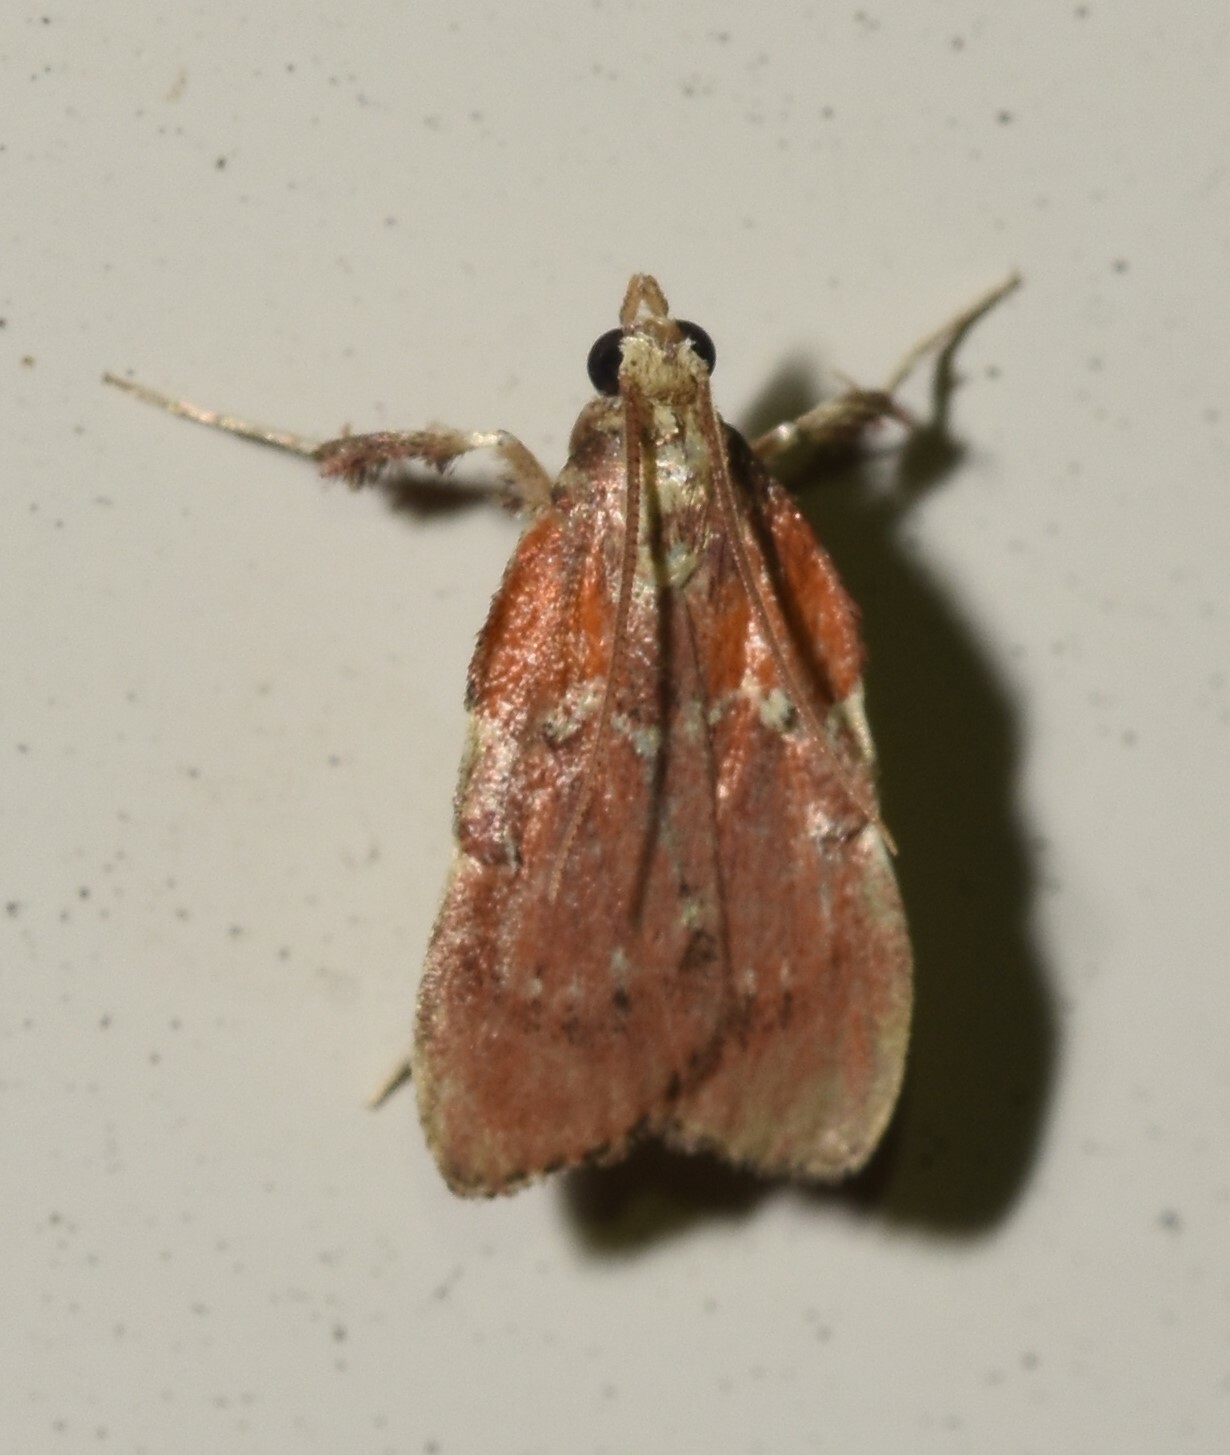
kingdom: Animalia
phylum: Arthropoda
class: Insecta
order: Lepidoptera
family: Pyralidae
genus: Galasa
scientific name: Galasa nigrinodis
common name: Boxwood leaftier moth
